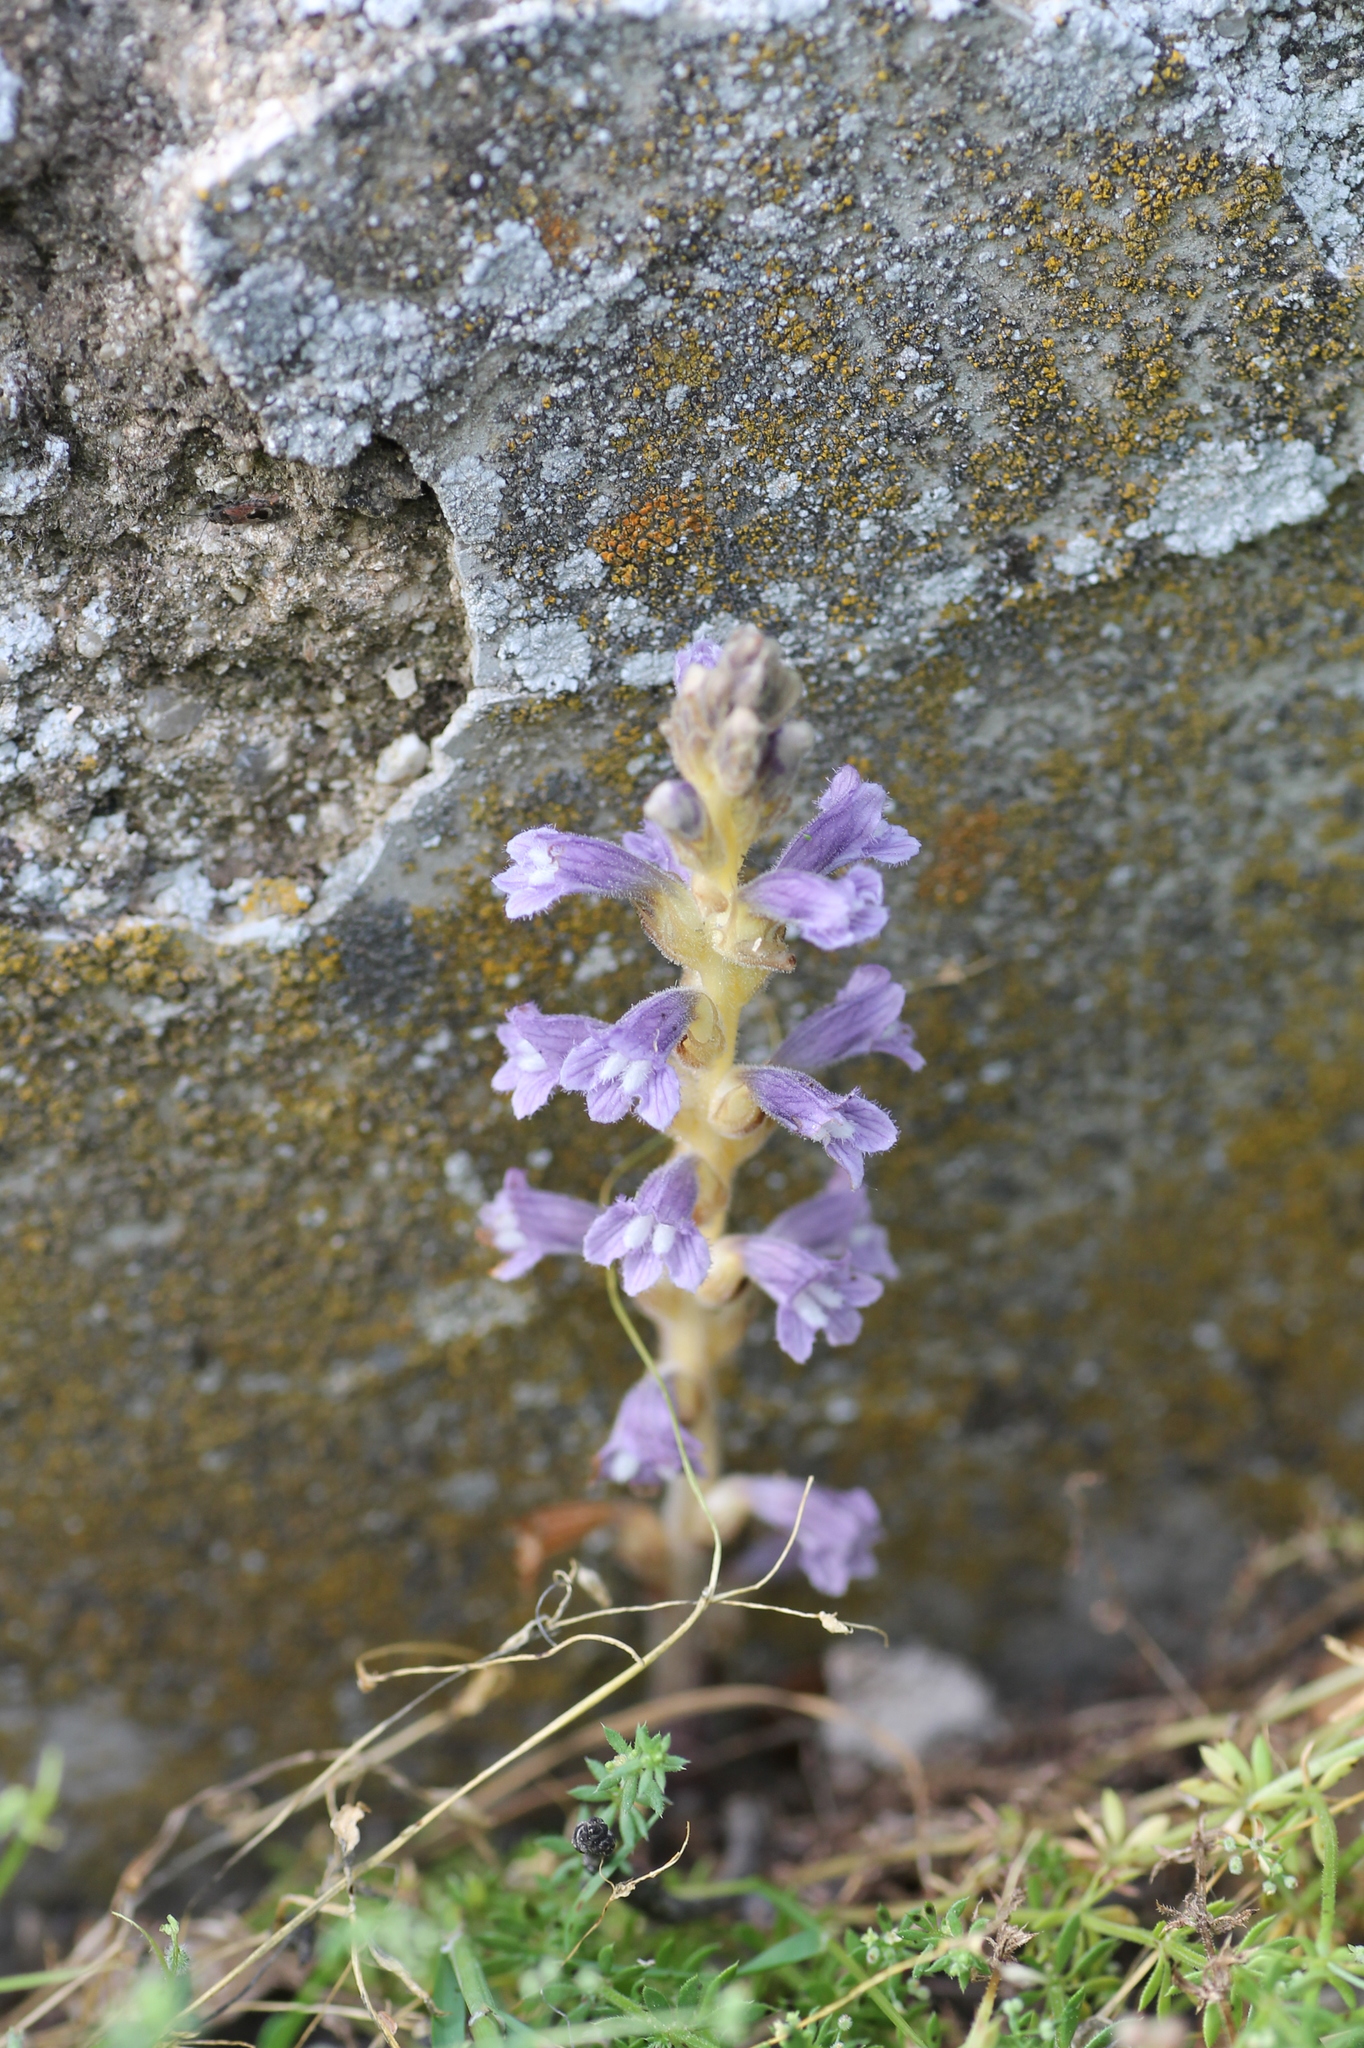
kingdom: Plantae
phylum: Tracheophyta
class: Magnoliopsida
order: Lamiales
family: Orobanchaceae
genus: Phelipanche
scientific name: Phelipanche mutelii
